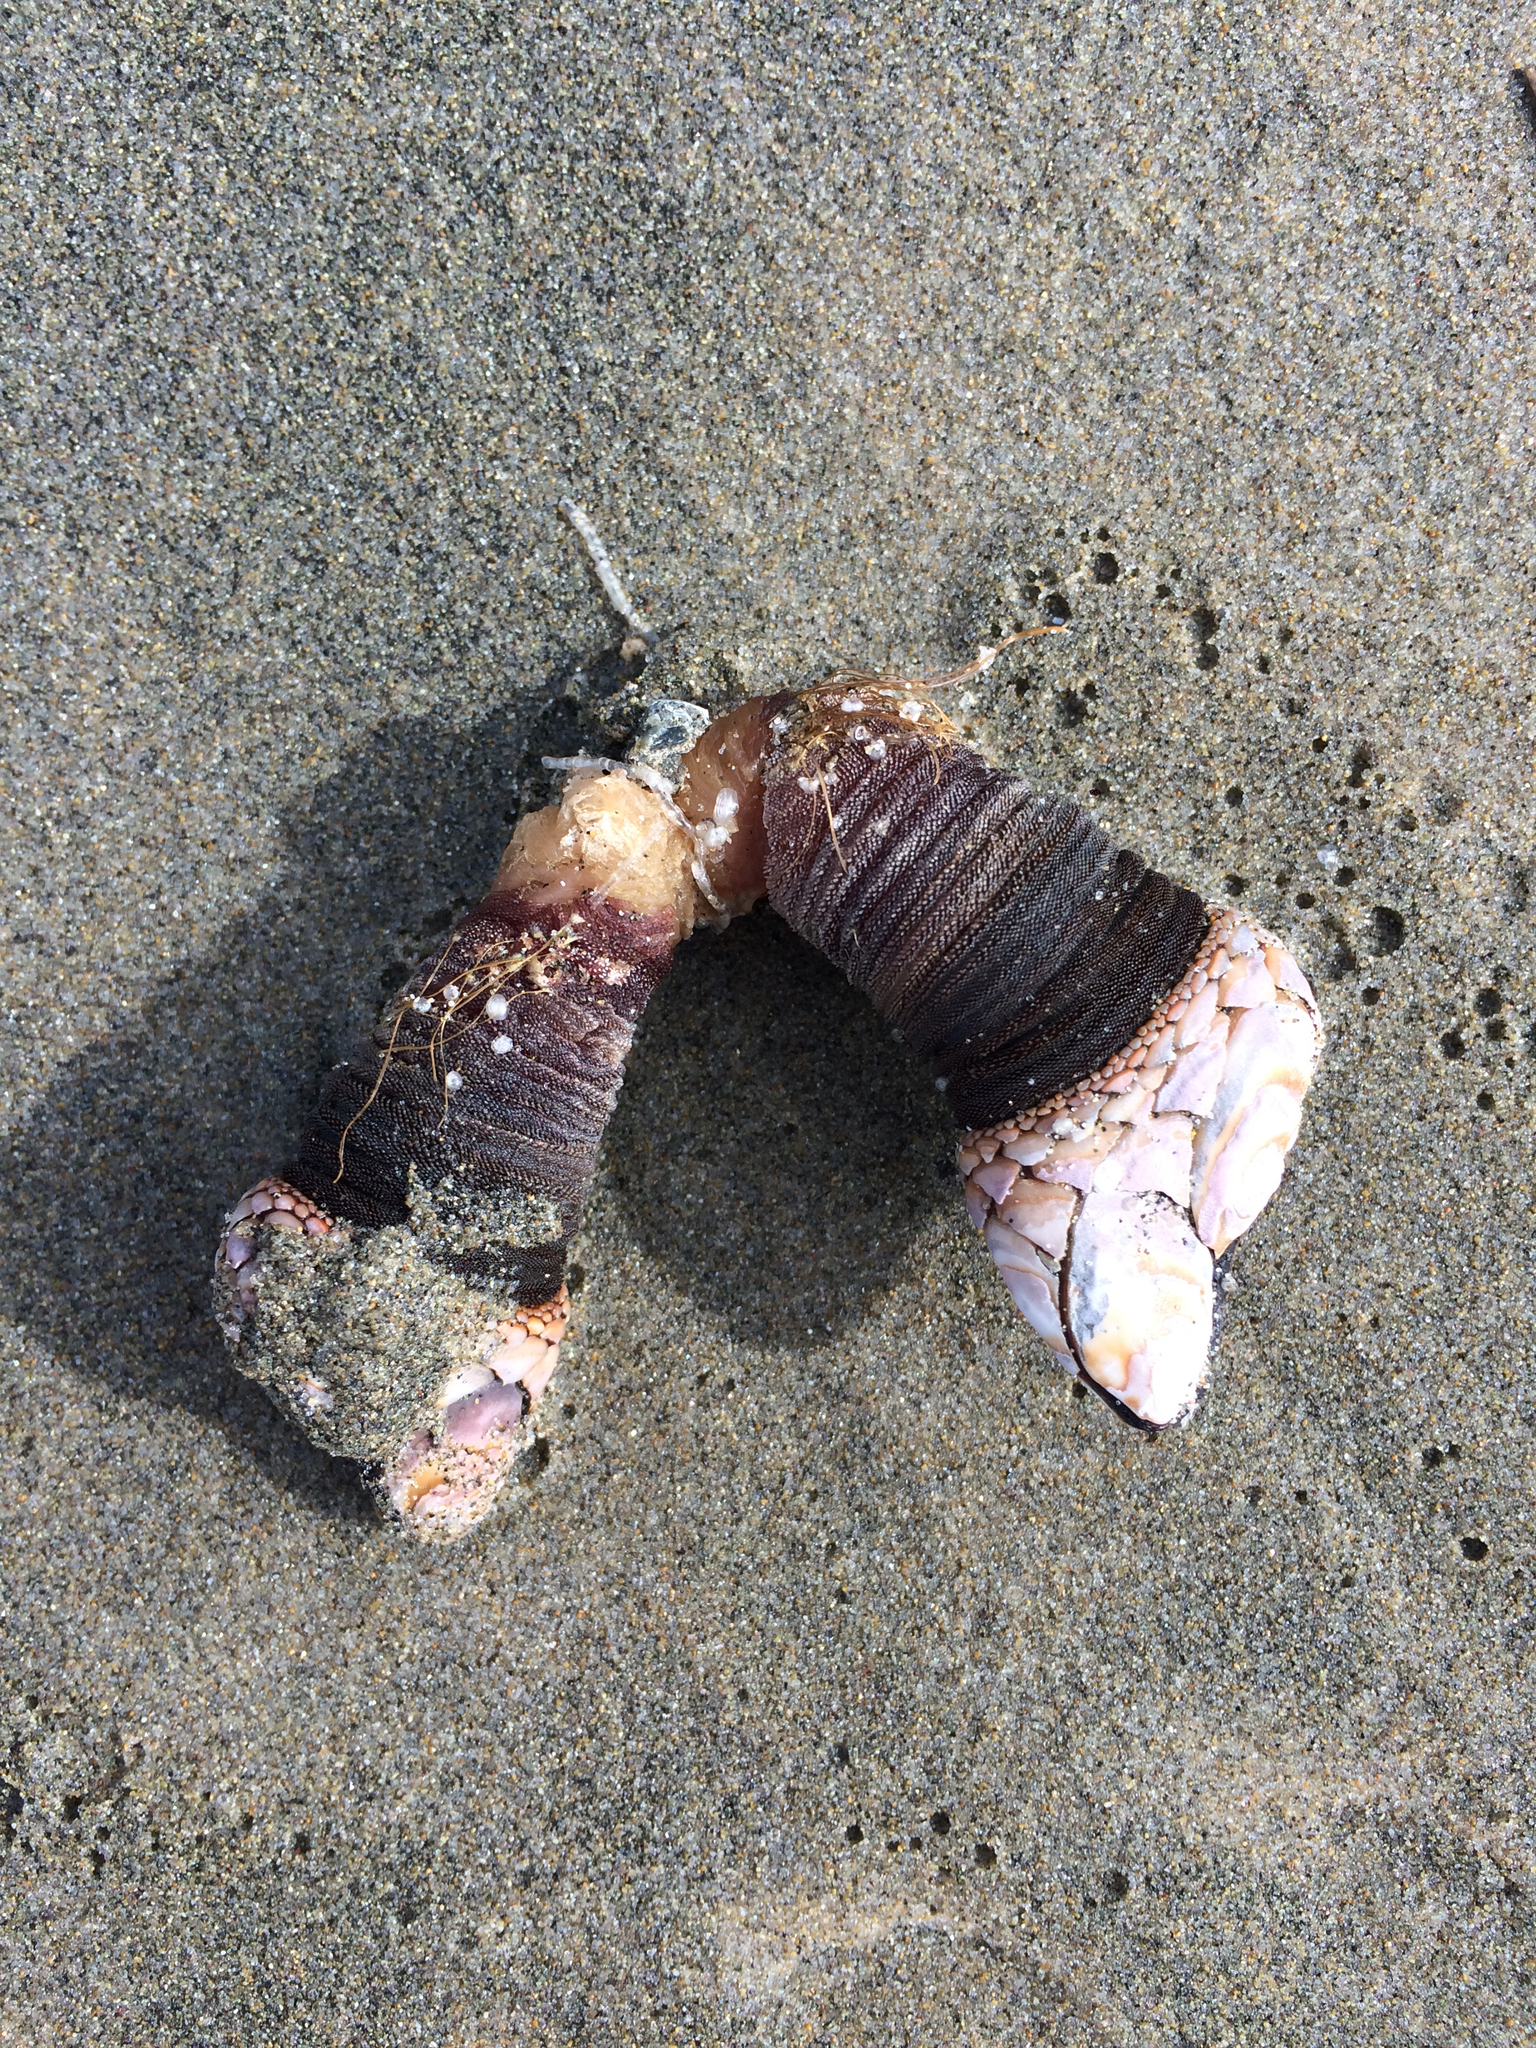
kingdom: Animalia
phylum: Arthropoda
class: Maxillopoda
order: Pedunculata
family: Pollicipedidae
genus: Pollicipes
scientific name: Pollicipes polymerus
